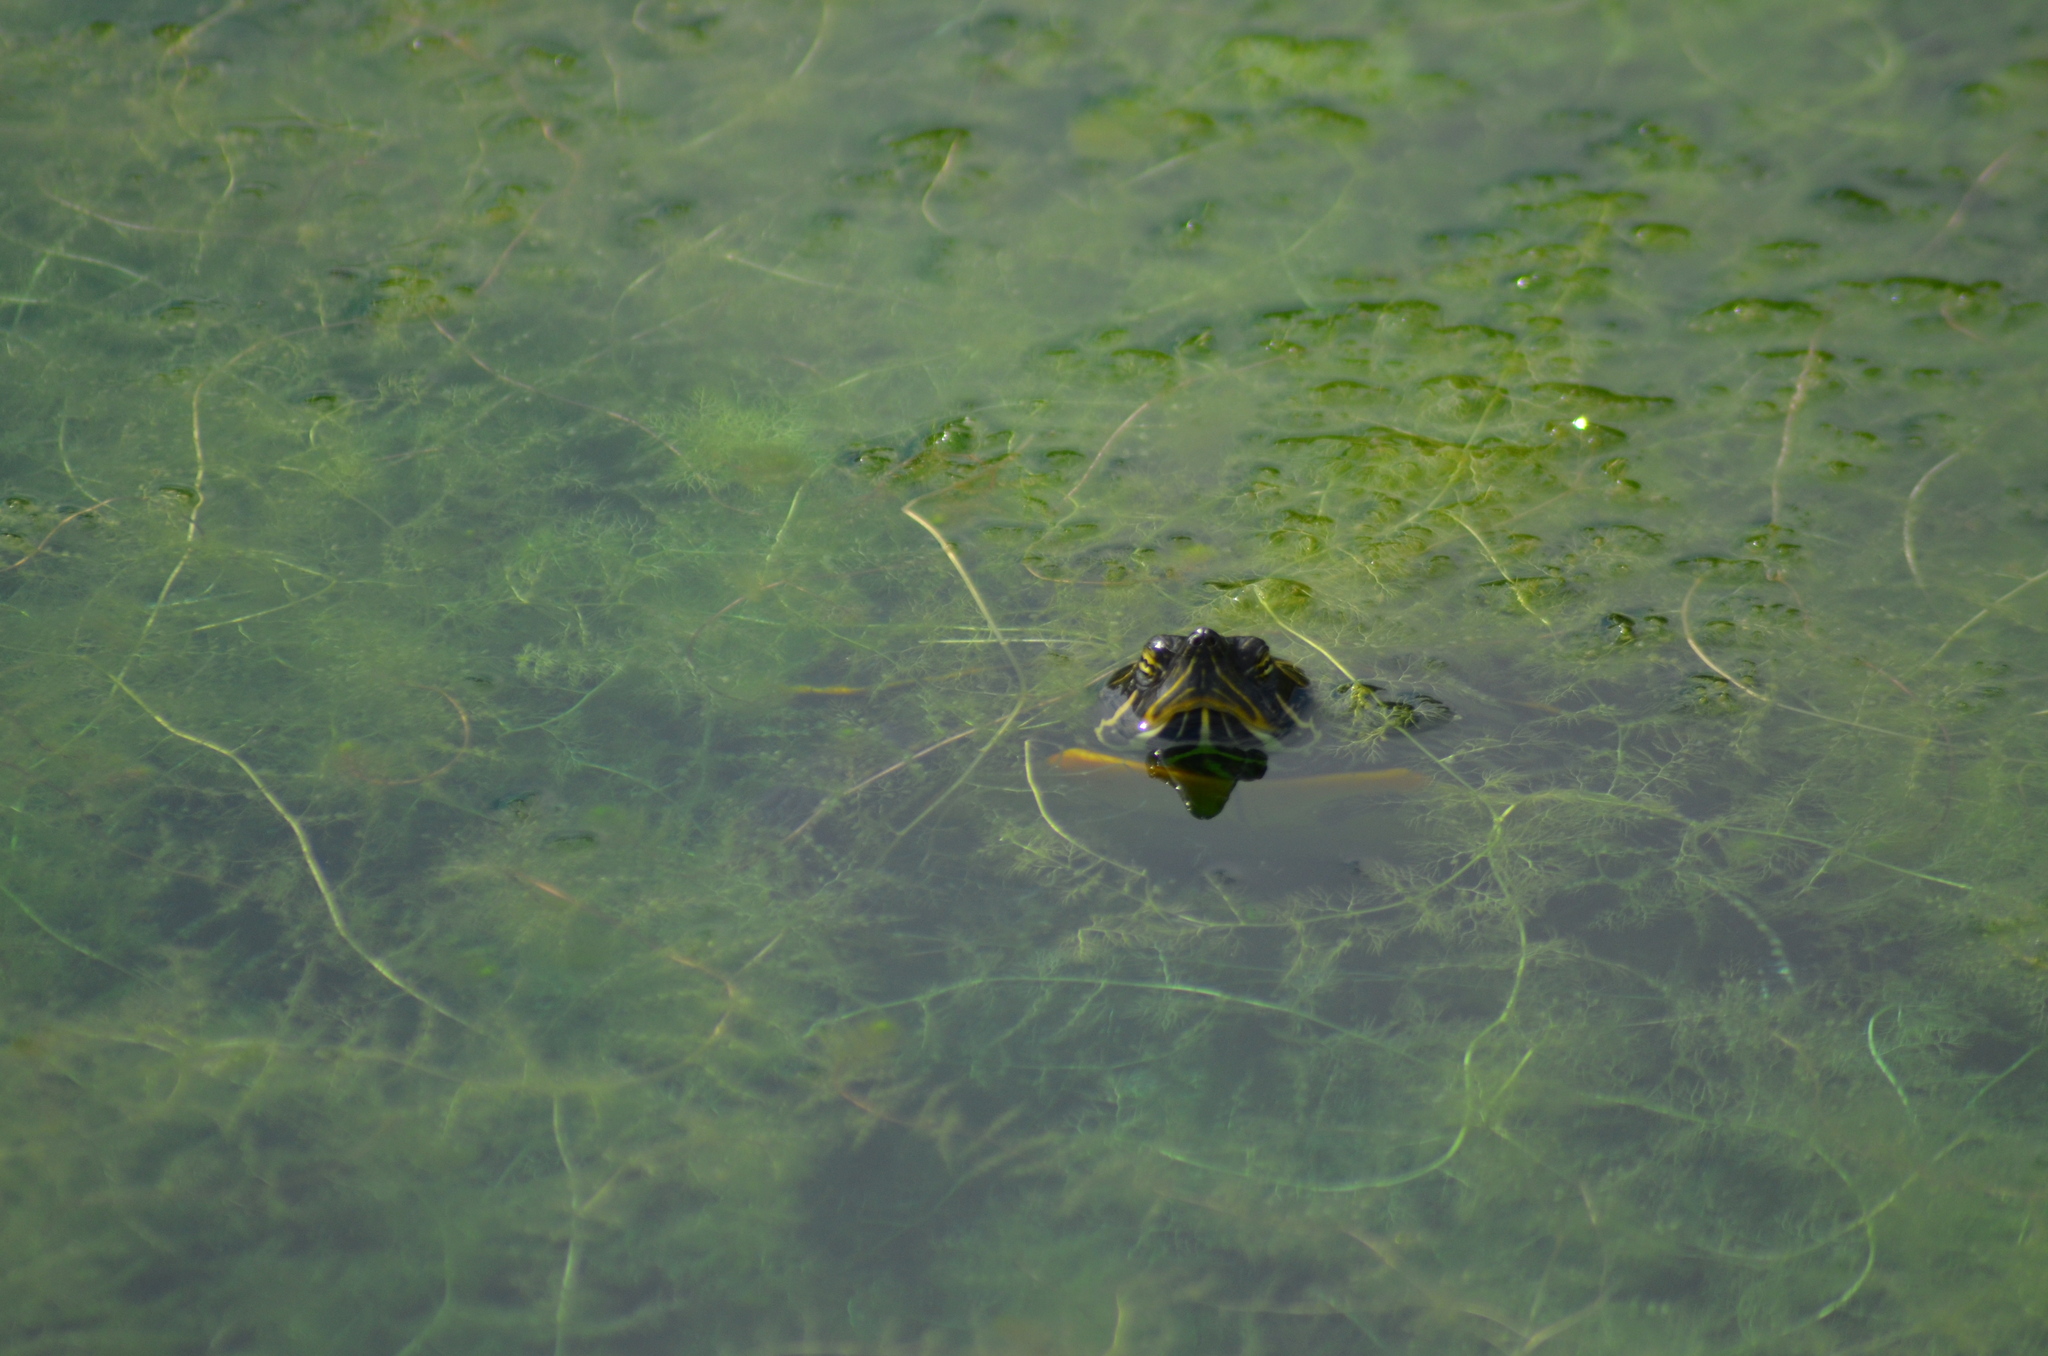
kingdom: Animalia
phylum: Chordata
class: Testudines
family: Emydidae
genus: Trachemys
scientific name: Trachemys scripta
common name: Slider
